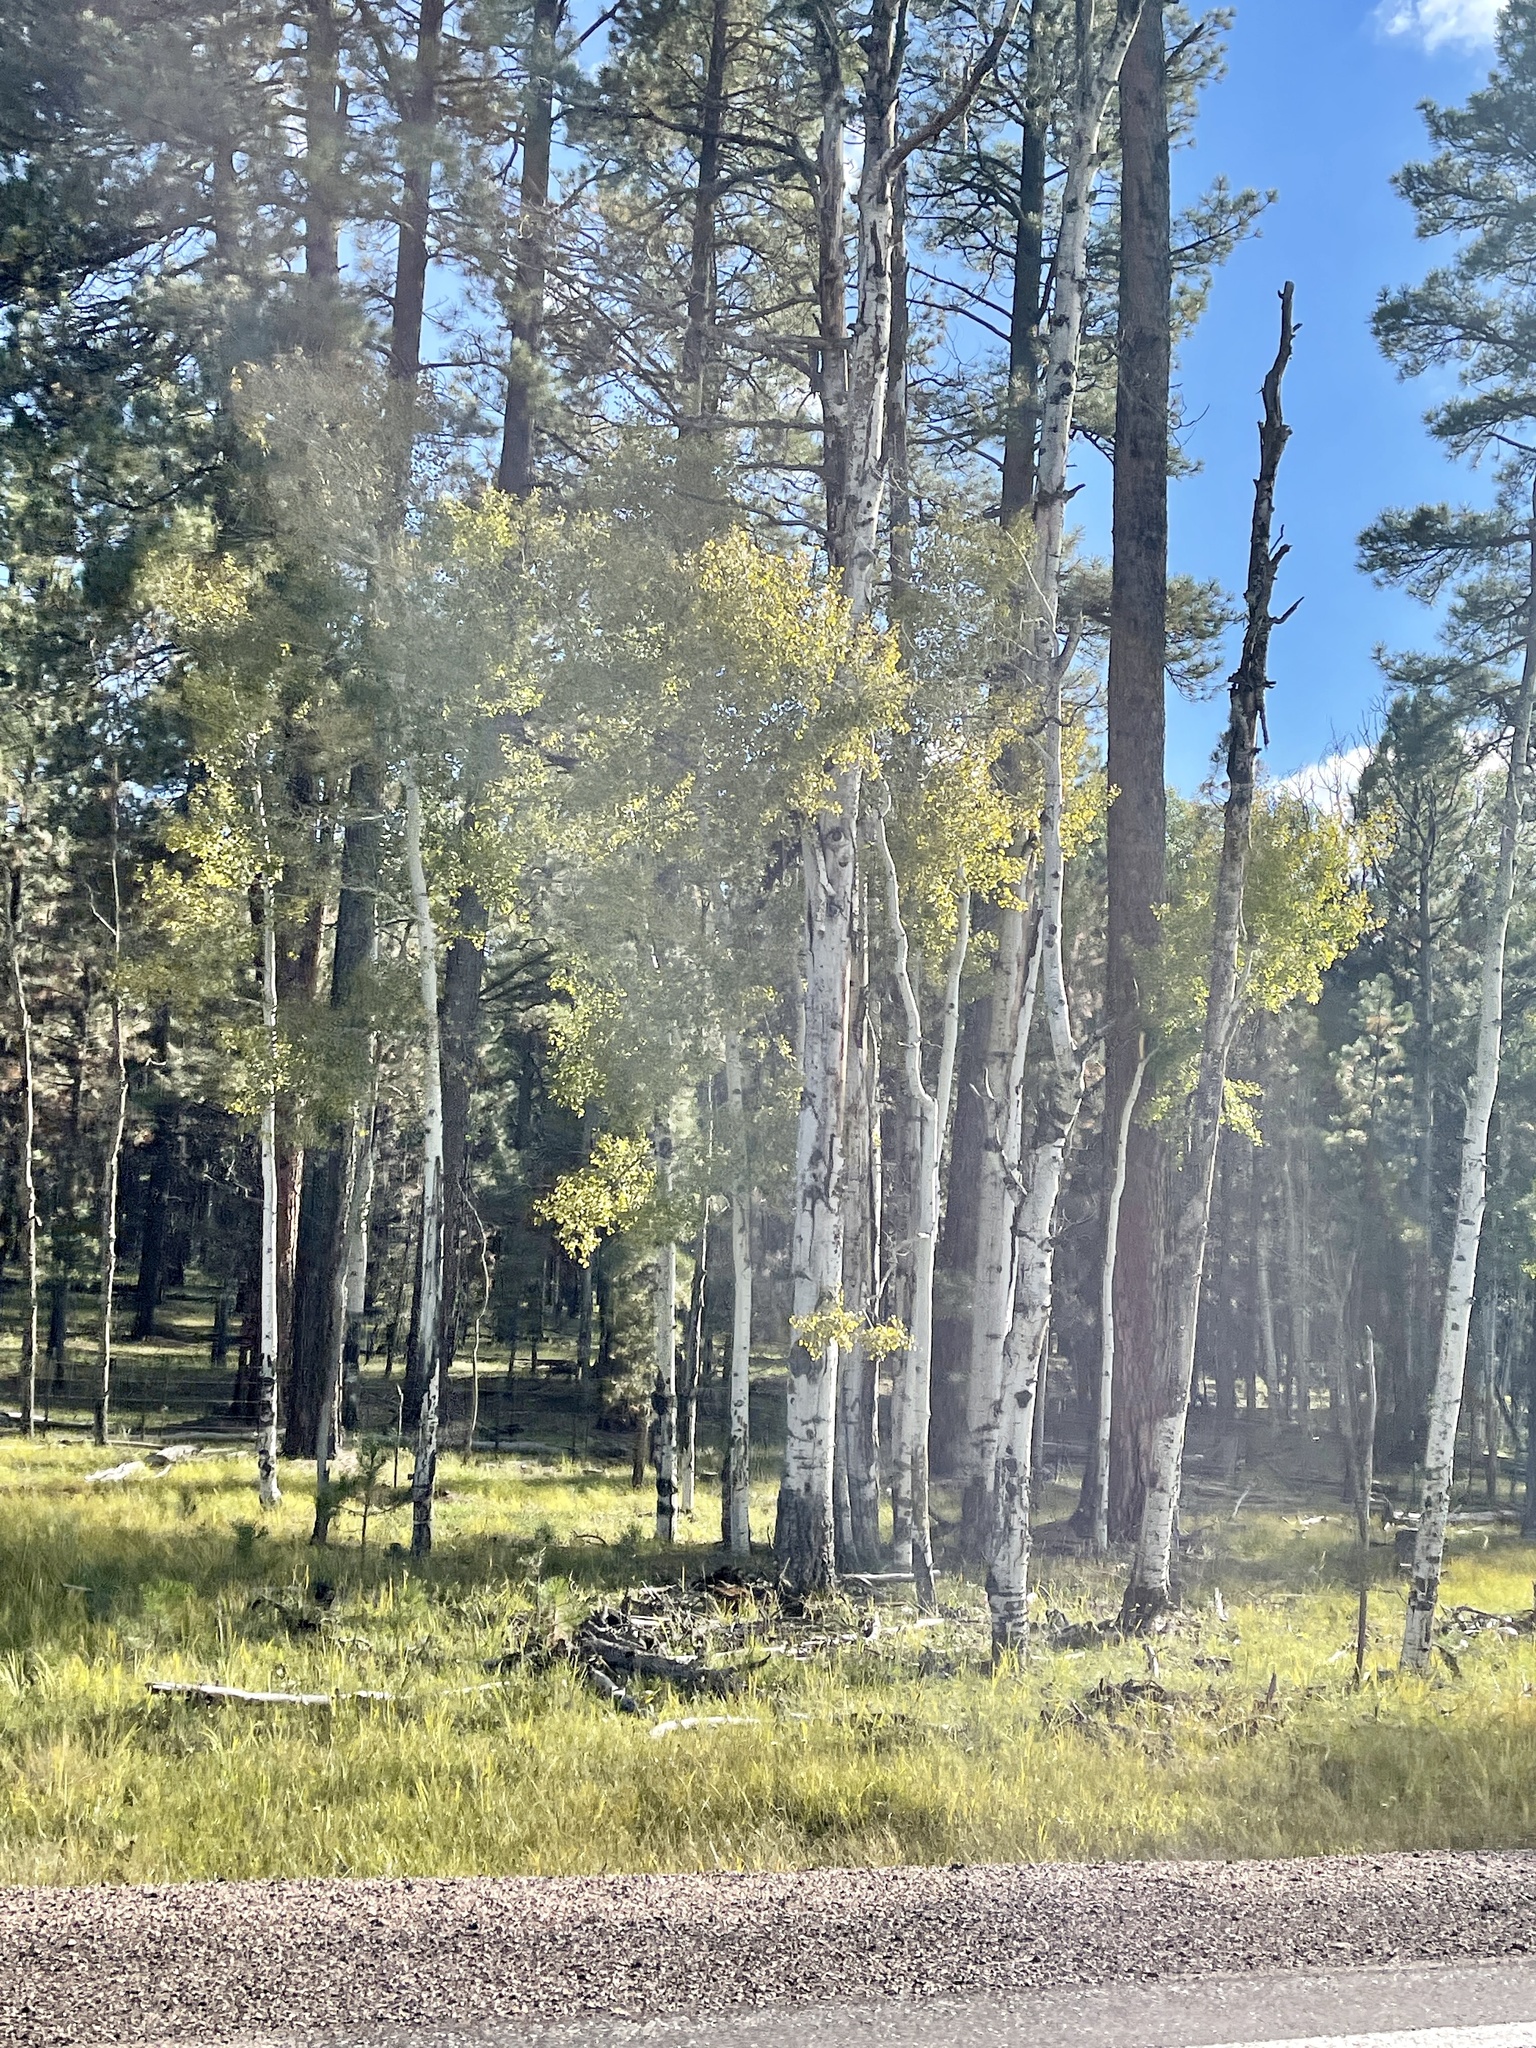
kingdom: Plantae
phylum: Tracheophyta
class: Magnoliopsida
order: Malpighiales
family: Salicaceae
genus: Populus
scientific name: Populus tremuloides
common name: Quaking aspen
